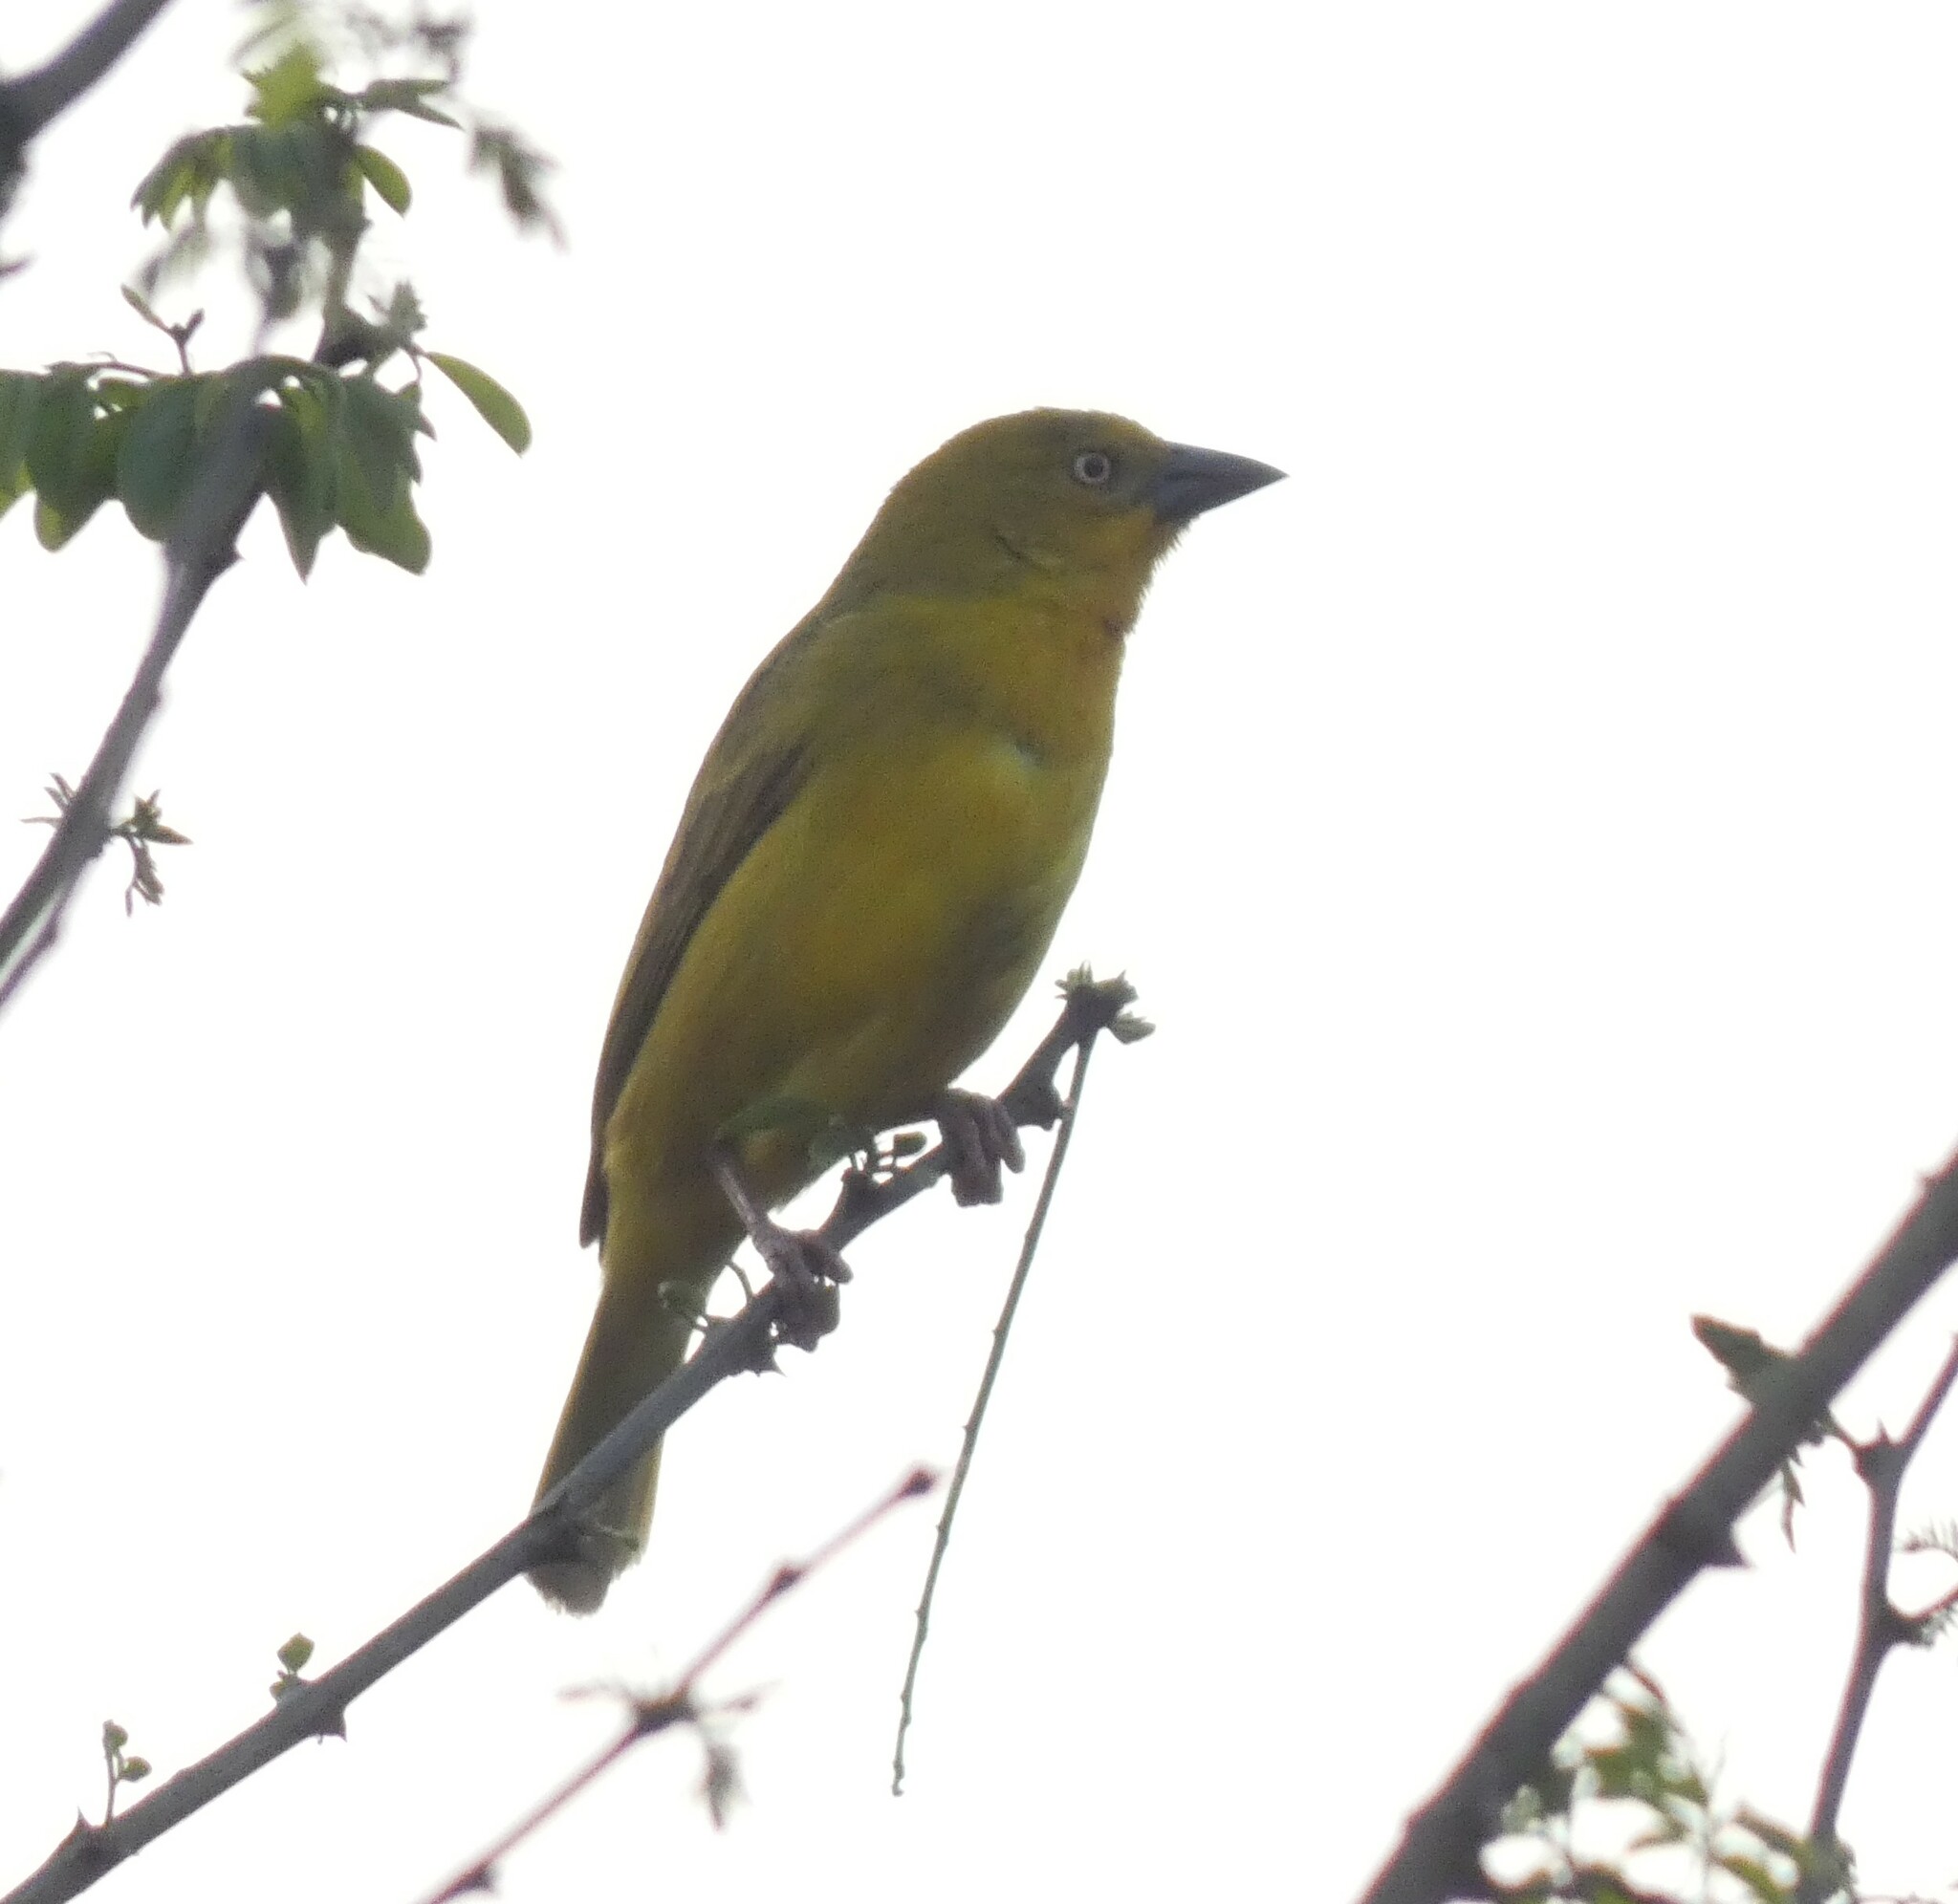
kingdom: Animalia
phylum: Chordata
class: Aves
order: Passeriformes
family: Ploceidae
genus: Ploceus
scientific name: Ploceus xanthops
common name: Holub's golden weaver
